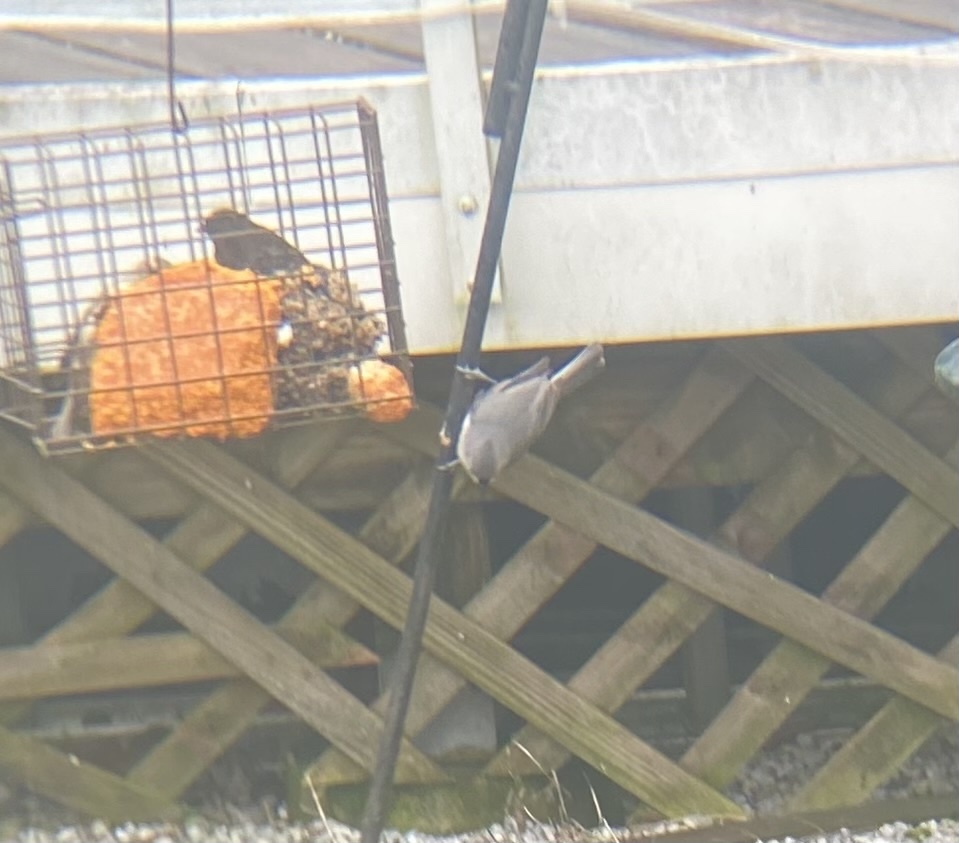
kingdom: Animalia
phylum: Chordata
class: Aves
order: Passeriformes
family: Paridae
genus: Baeolophus
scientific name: Baeolophus bicolor
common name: Tufted titmouse
